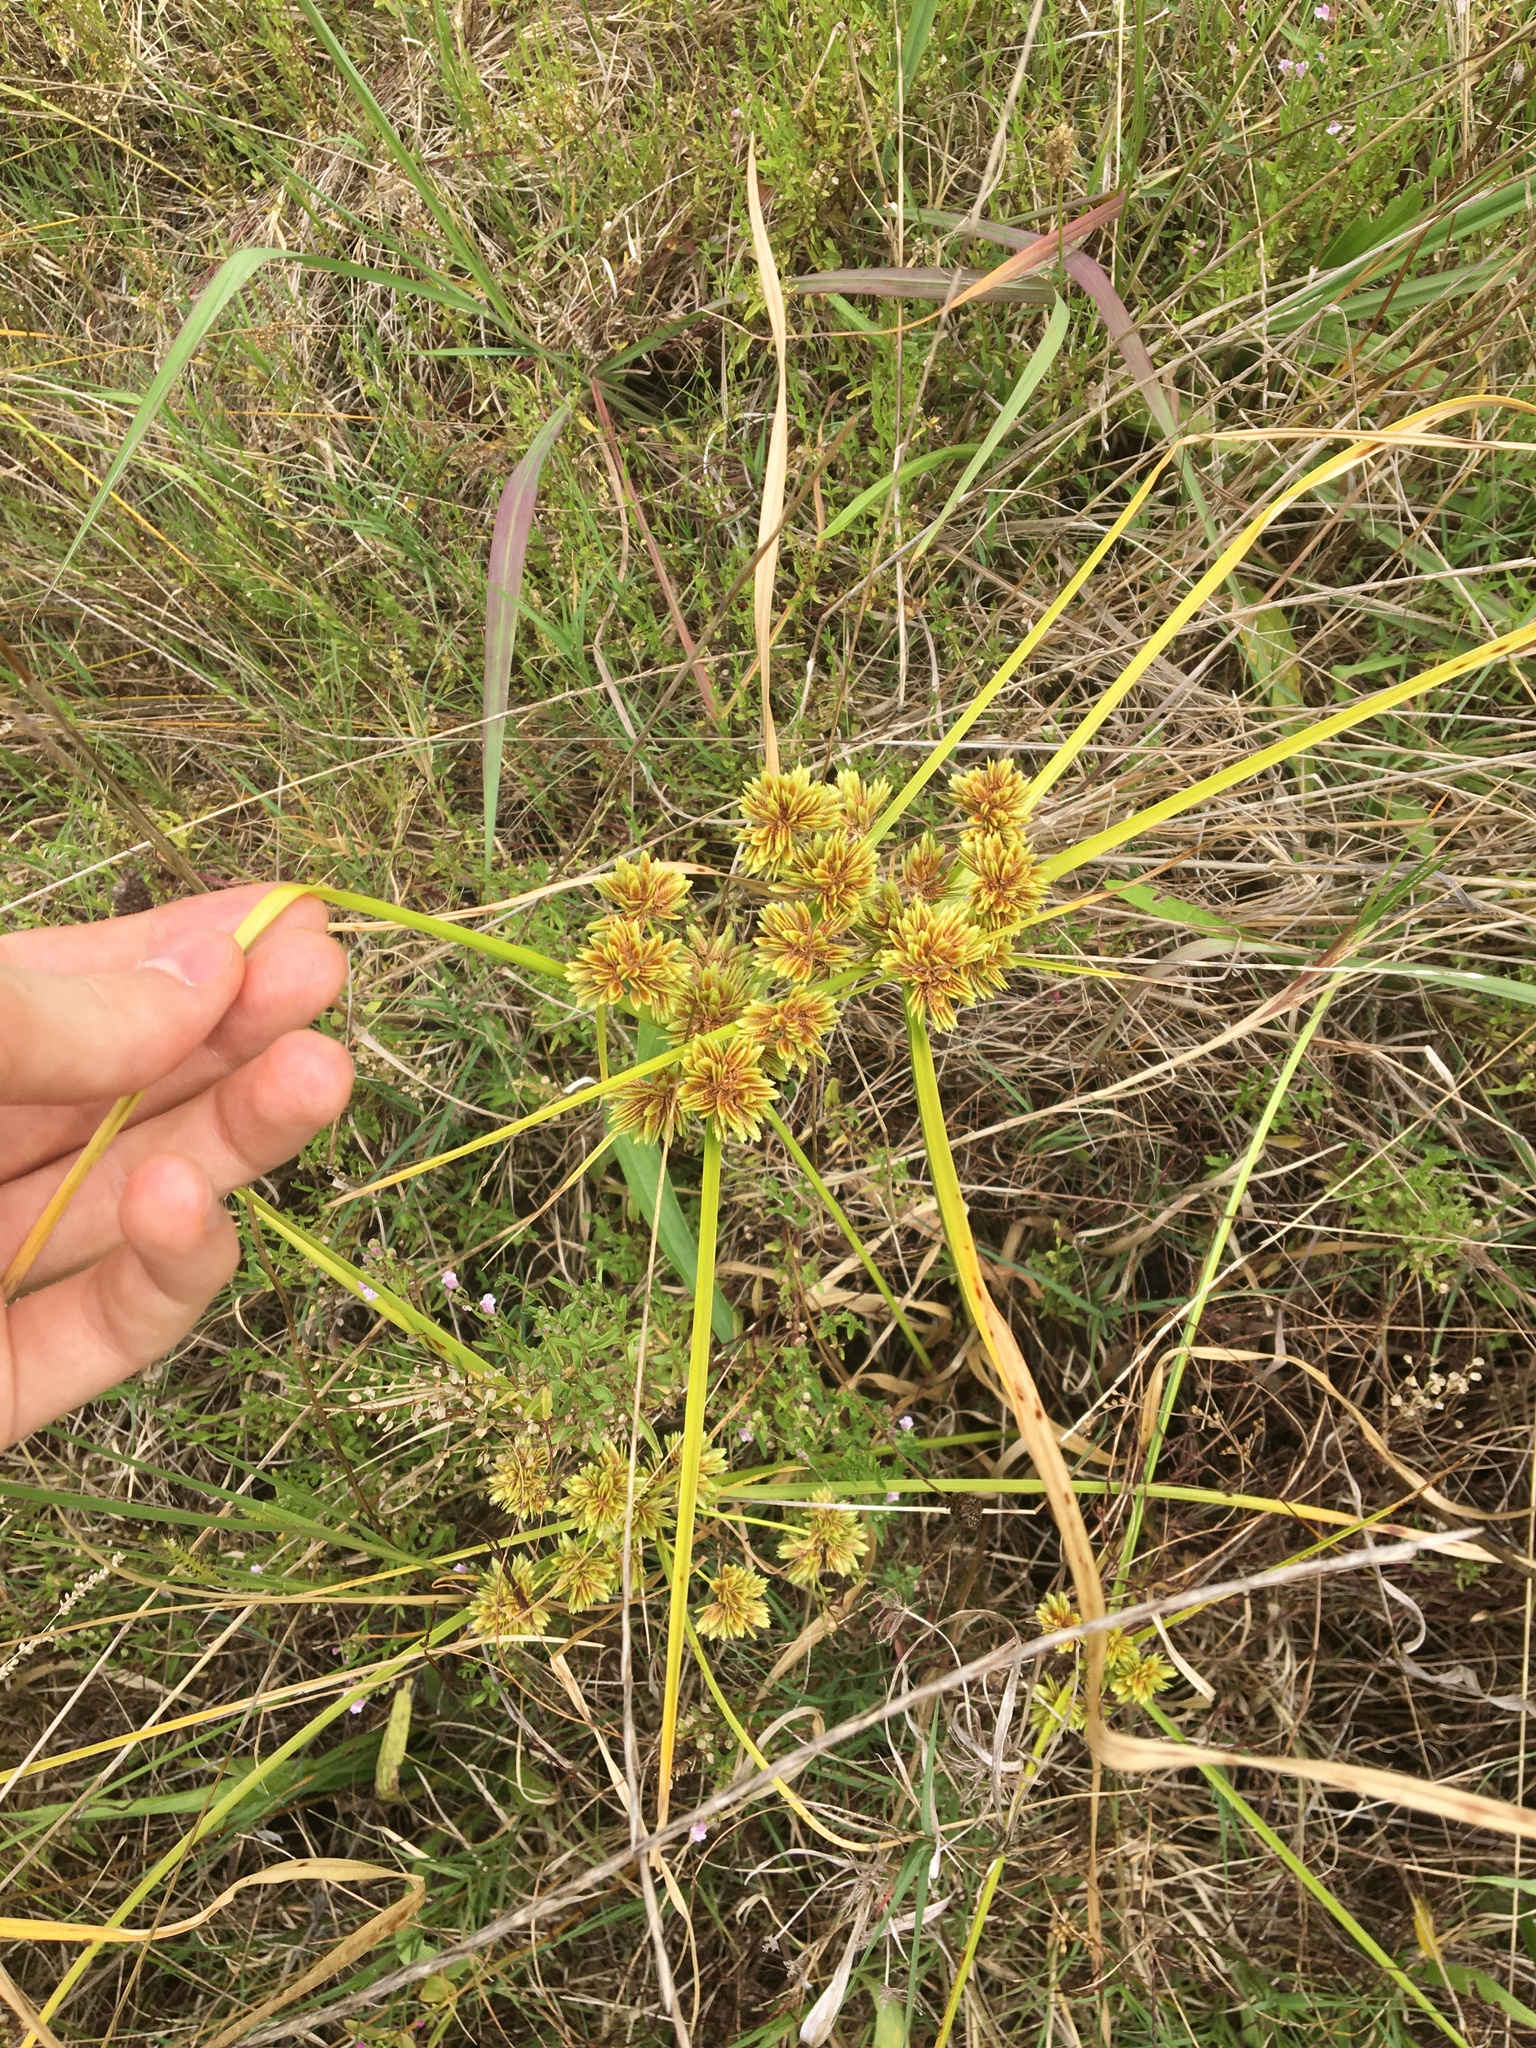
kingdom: Plantae
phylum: Tracheophyta
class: Liliopsida
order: Poales
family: Cyperaceae
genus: Cyperus
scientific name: Cyperus eragrostis
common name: Tall flatsedge
